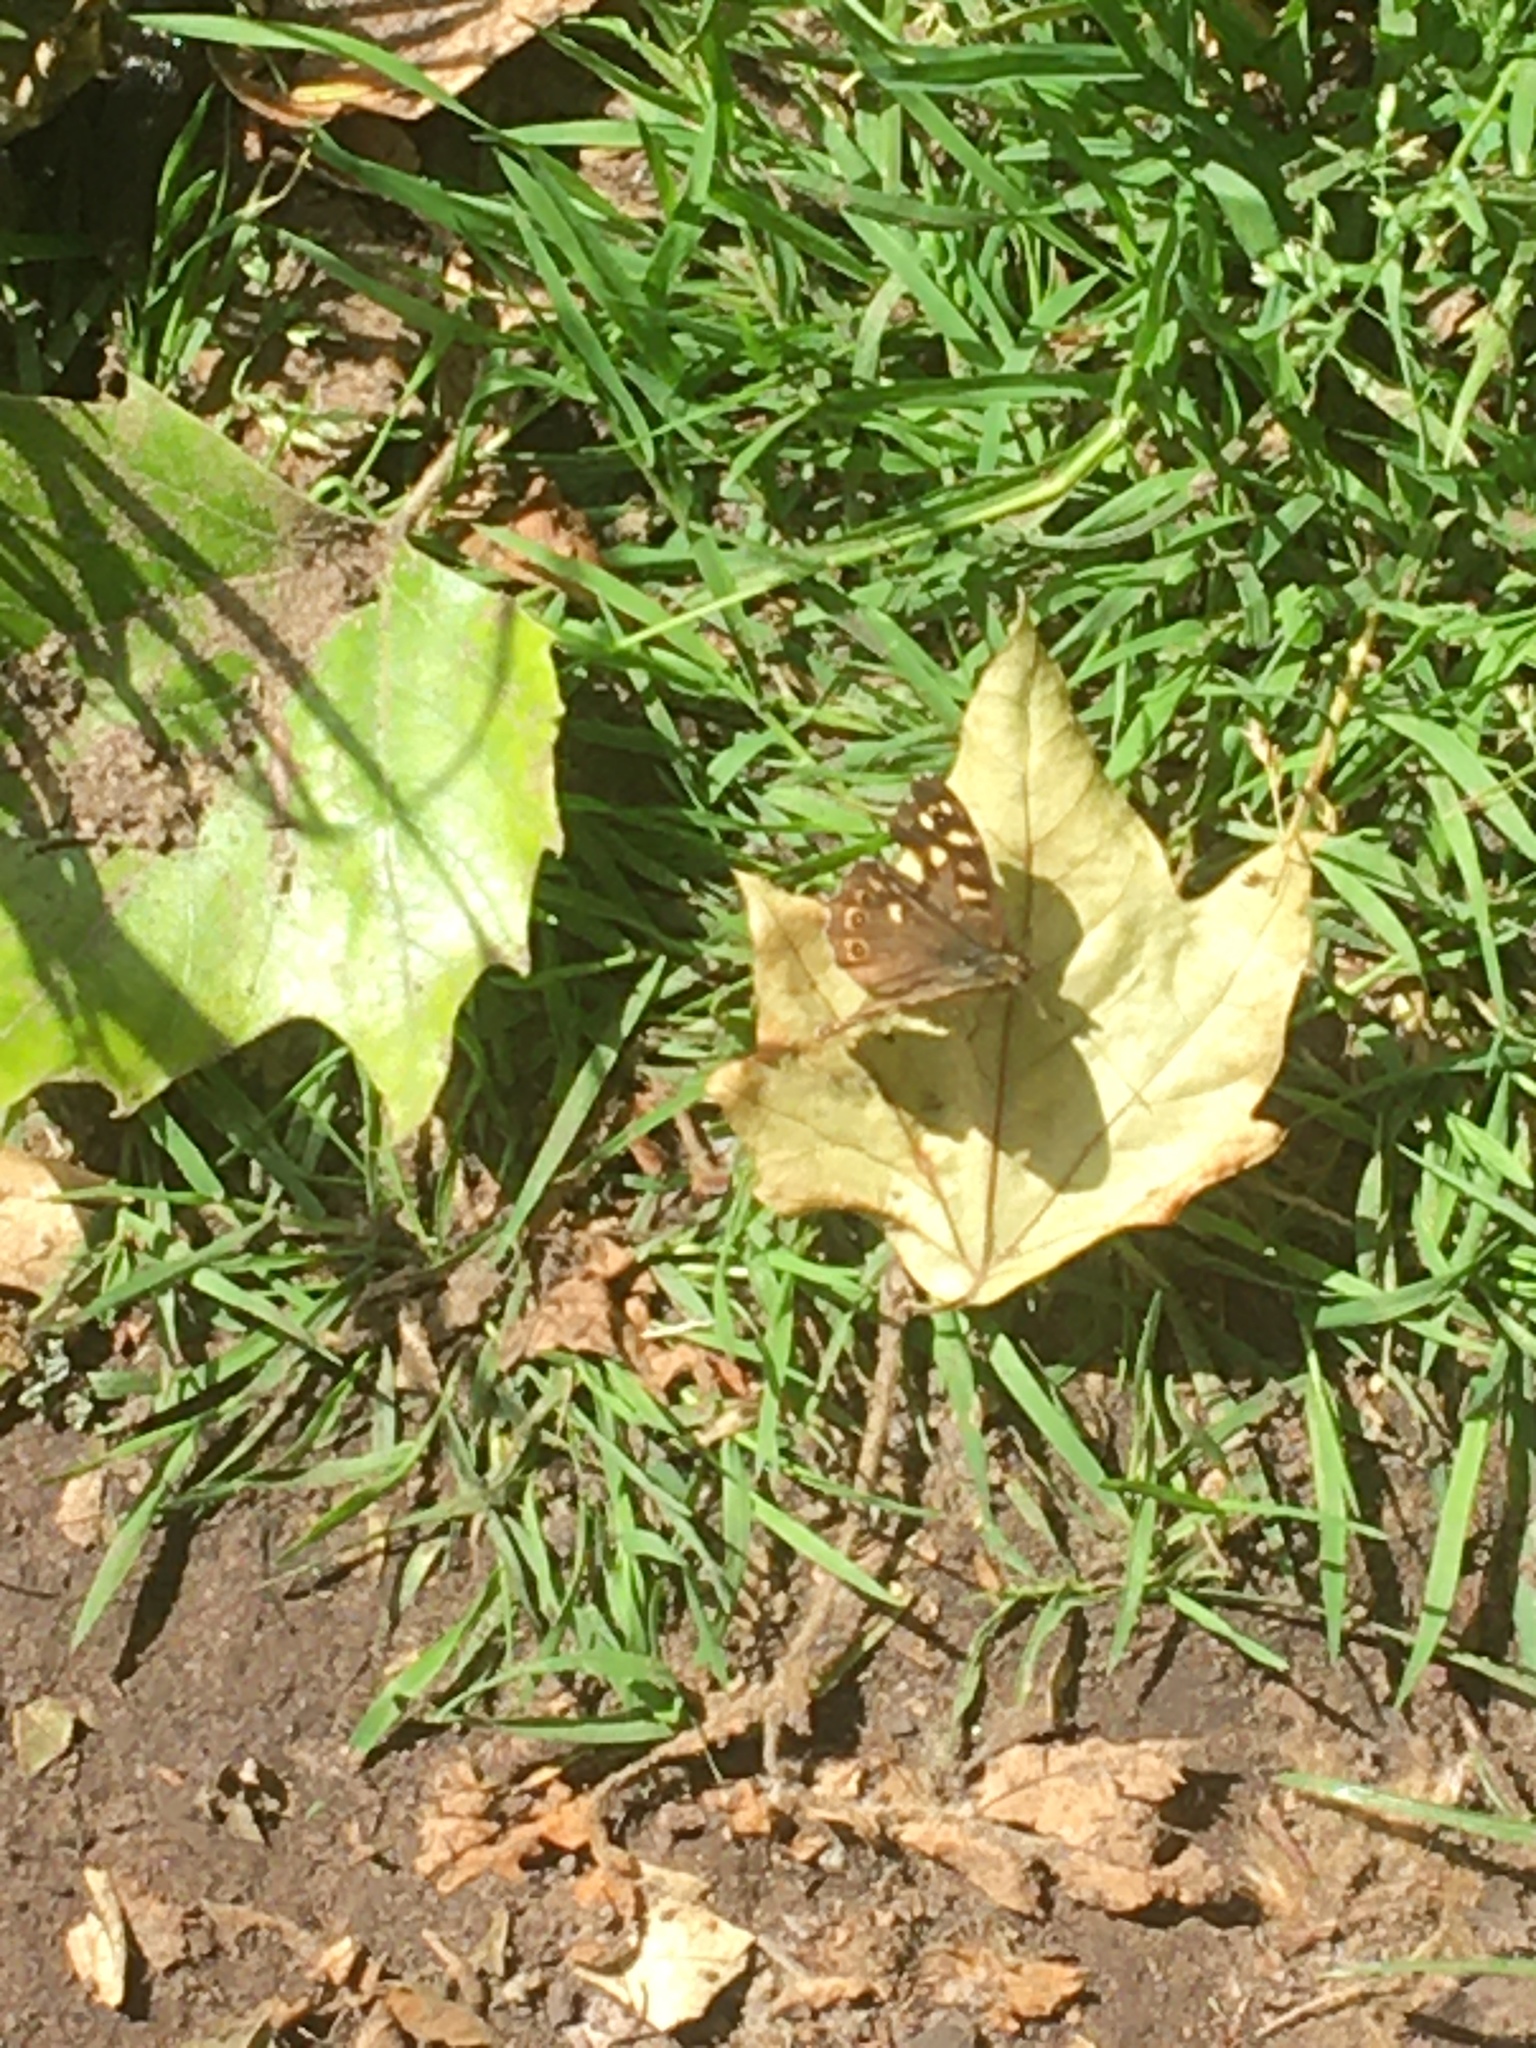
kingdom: Animalia
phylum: Arthropoda
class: Insecta
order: Lepidoptera
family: Nymphalidae
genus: Pararge
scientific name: Pararge aegeria
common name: Speckled wood
